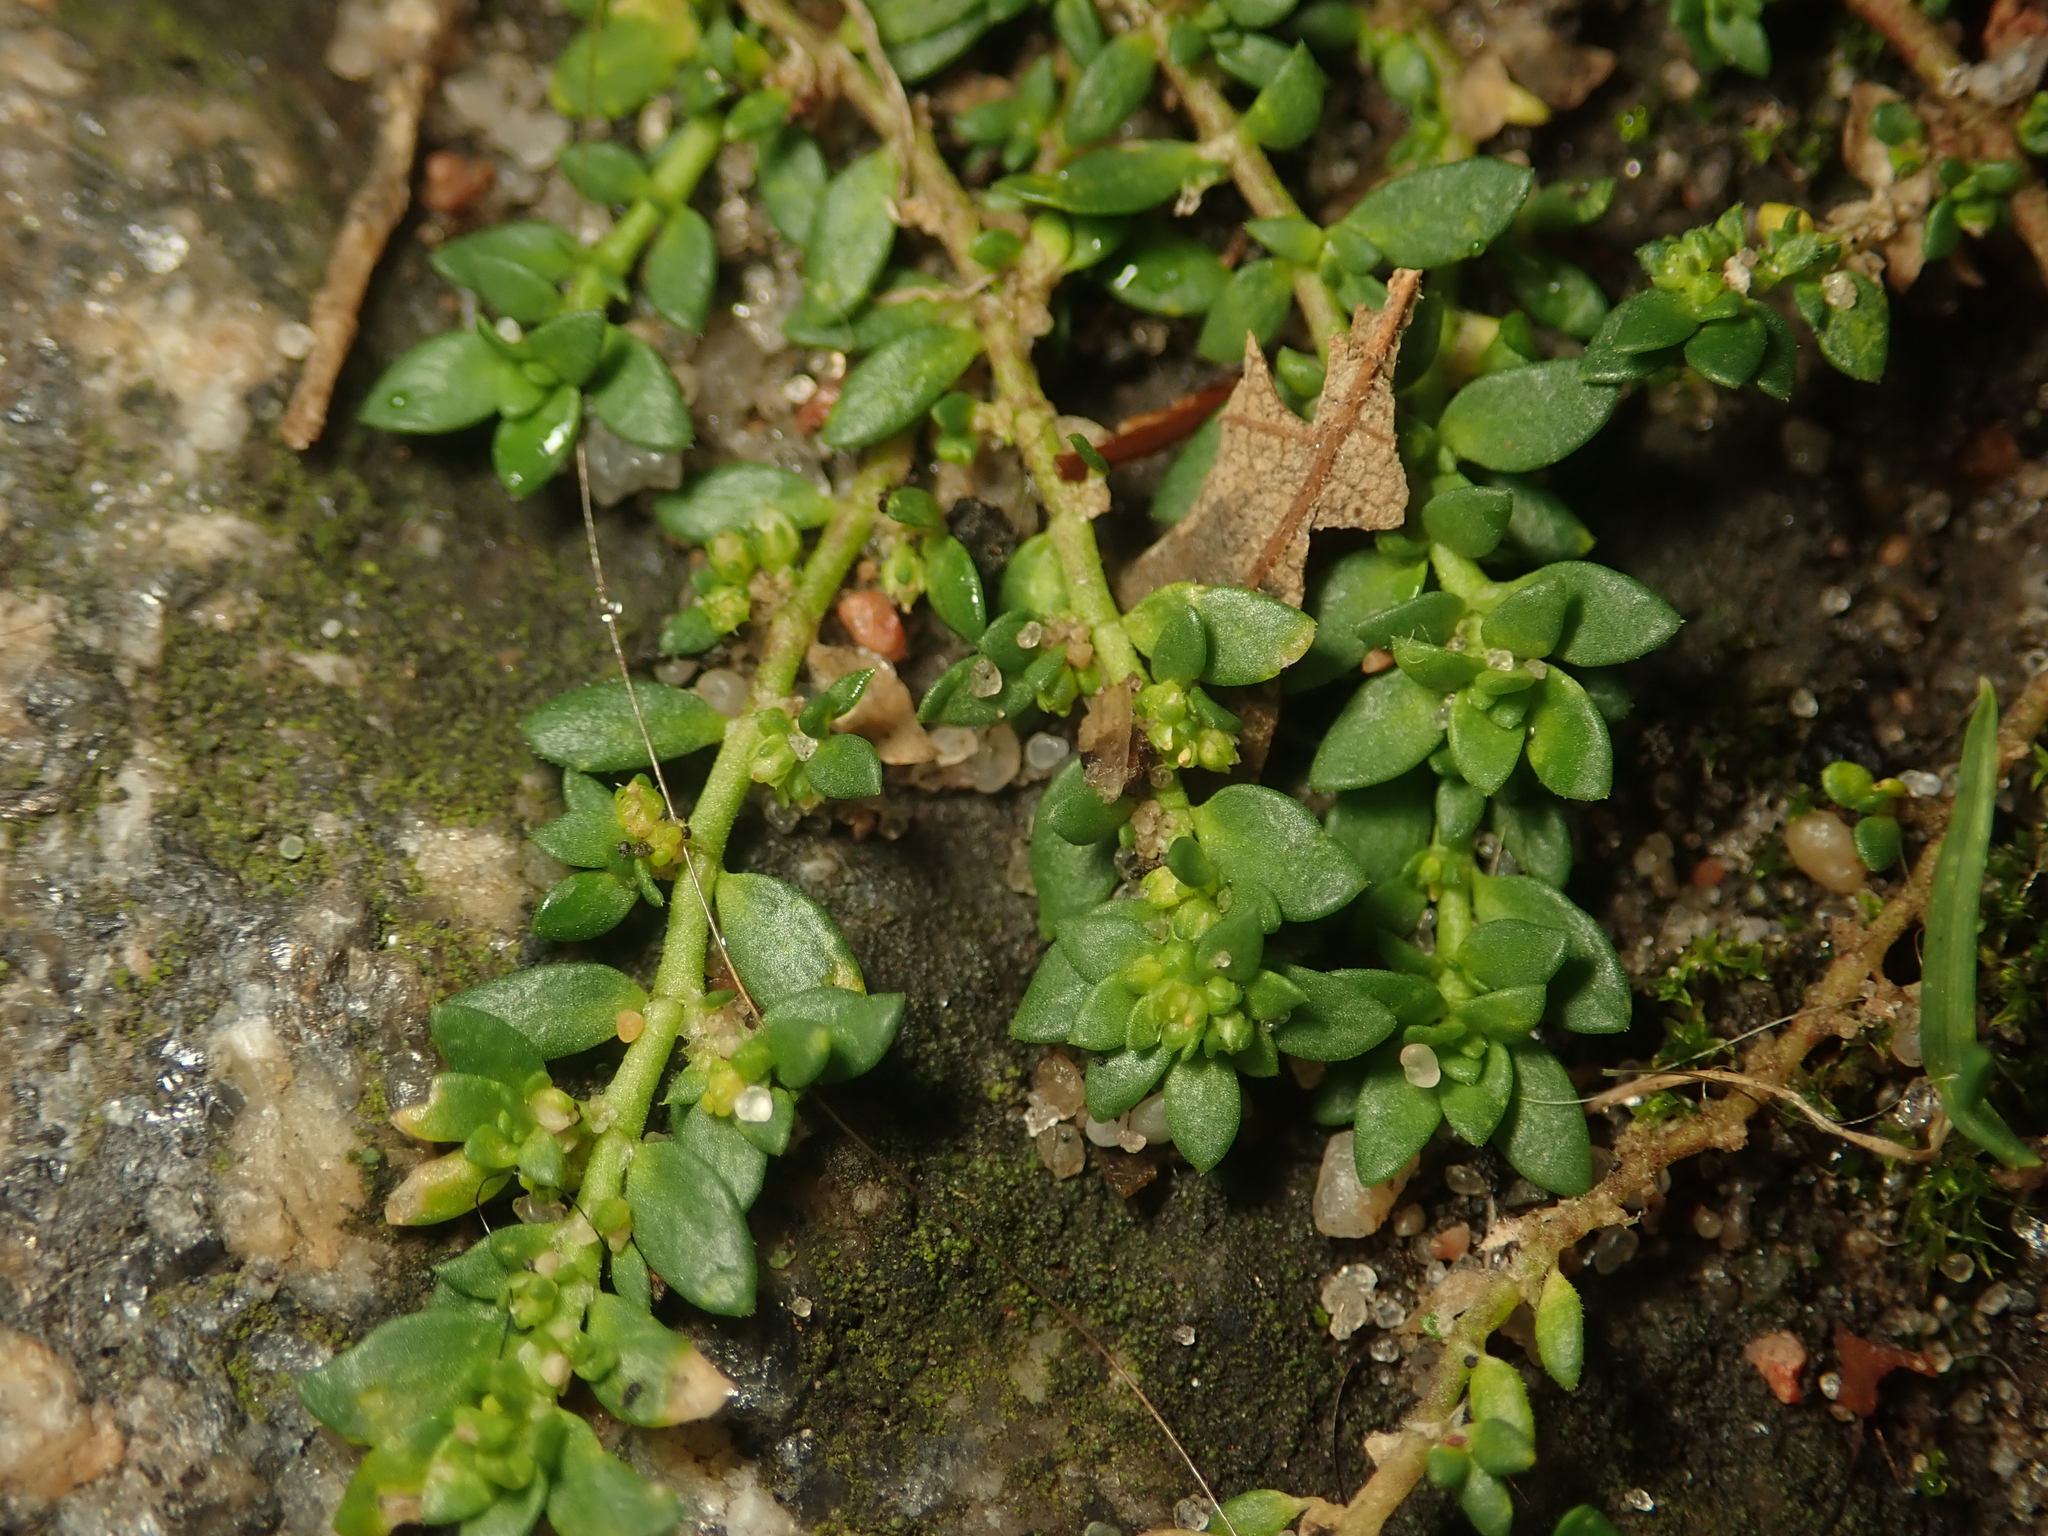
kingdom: Plantae
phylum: Tracheophyta
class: Magnoliopsida
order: Caryophyllales
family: Caryophyllaceae
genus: Herniaria
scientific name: Herniaria glabra
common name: Smooth rupturewort
